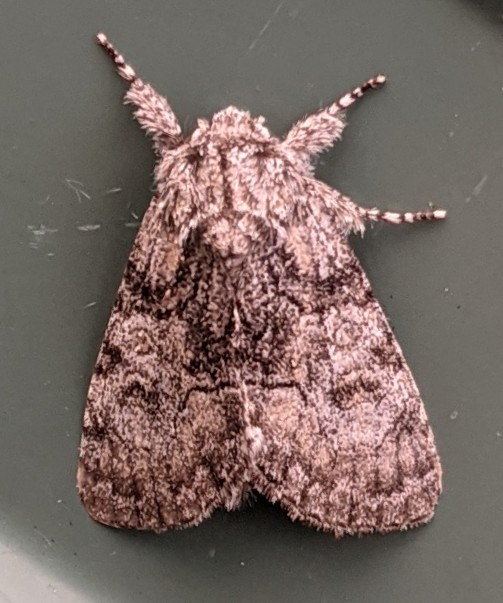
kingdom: Animalia
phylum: Arthropoda
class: Insecta
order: Lepidoptera
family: Noctuidae
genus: Raphia
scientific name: Raphia frater
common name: Brother
